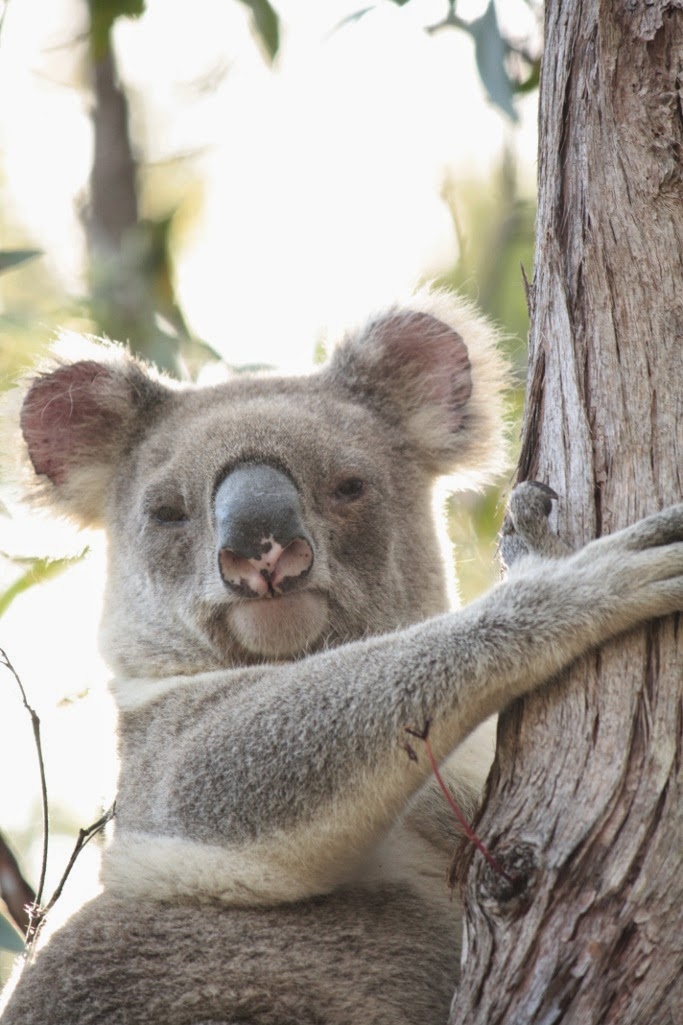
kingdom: Animalia
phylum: Chordata
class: Mammalia
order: Diprotodontia
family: Phascolarctidae
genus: Phascolarctos
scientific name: Phascolarctos cinereus
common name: Koala
